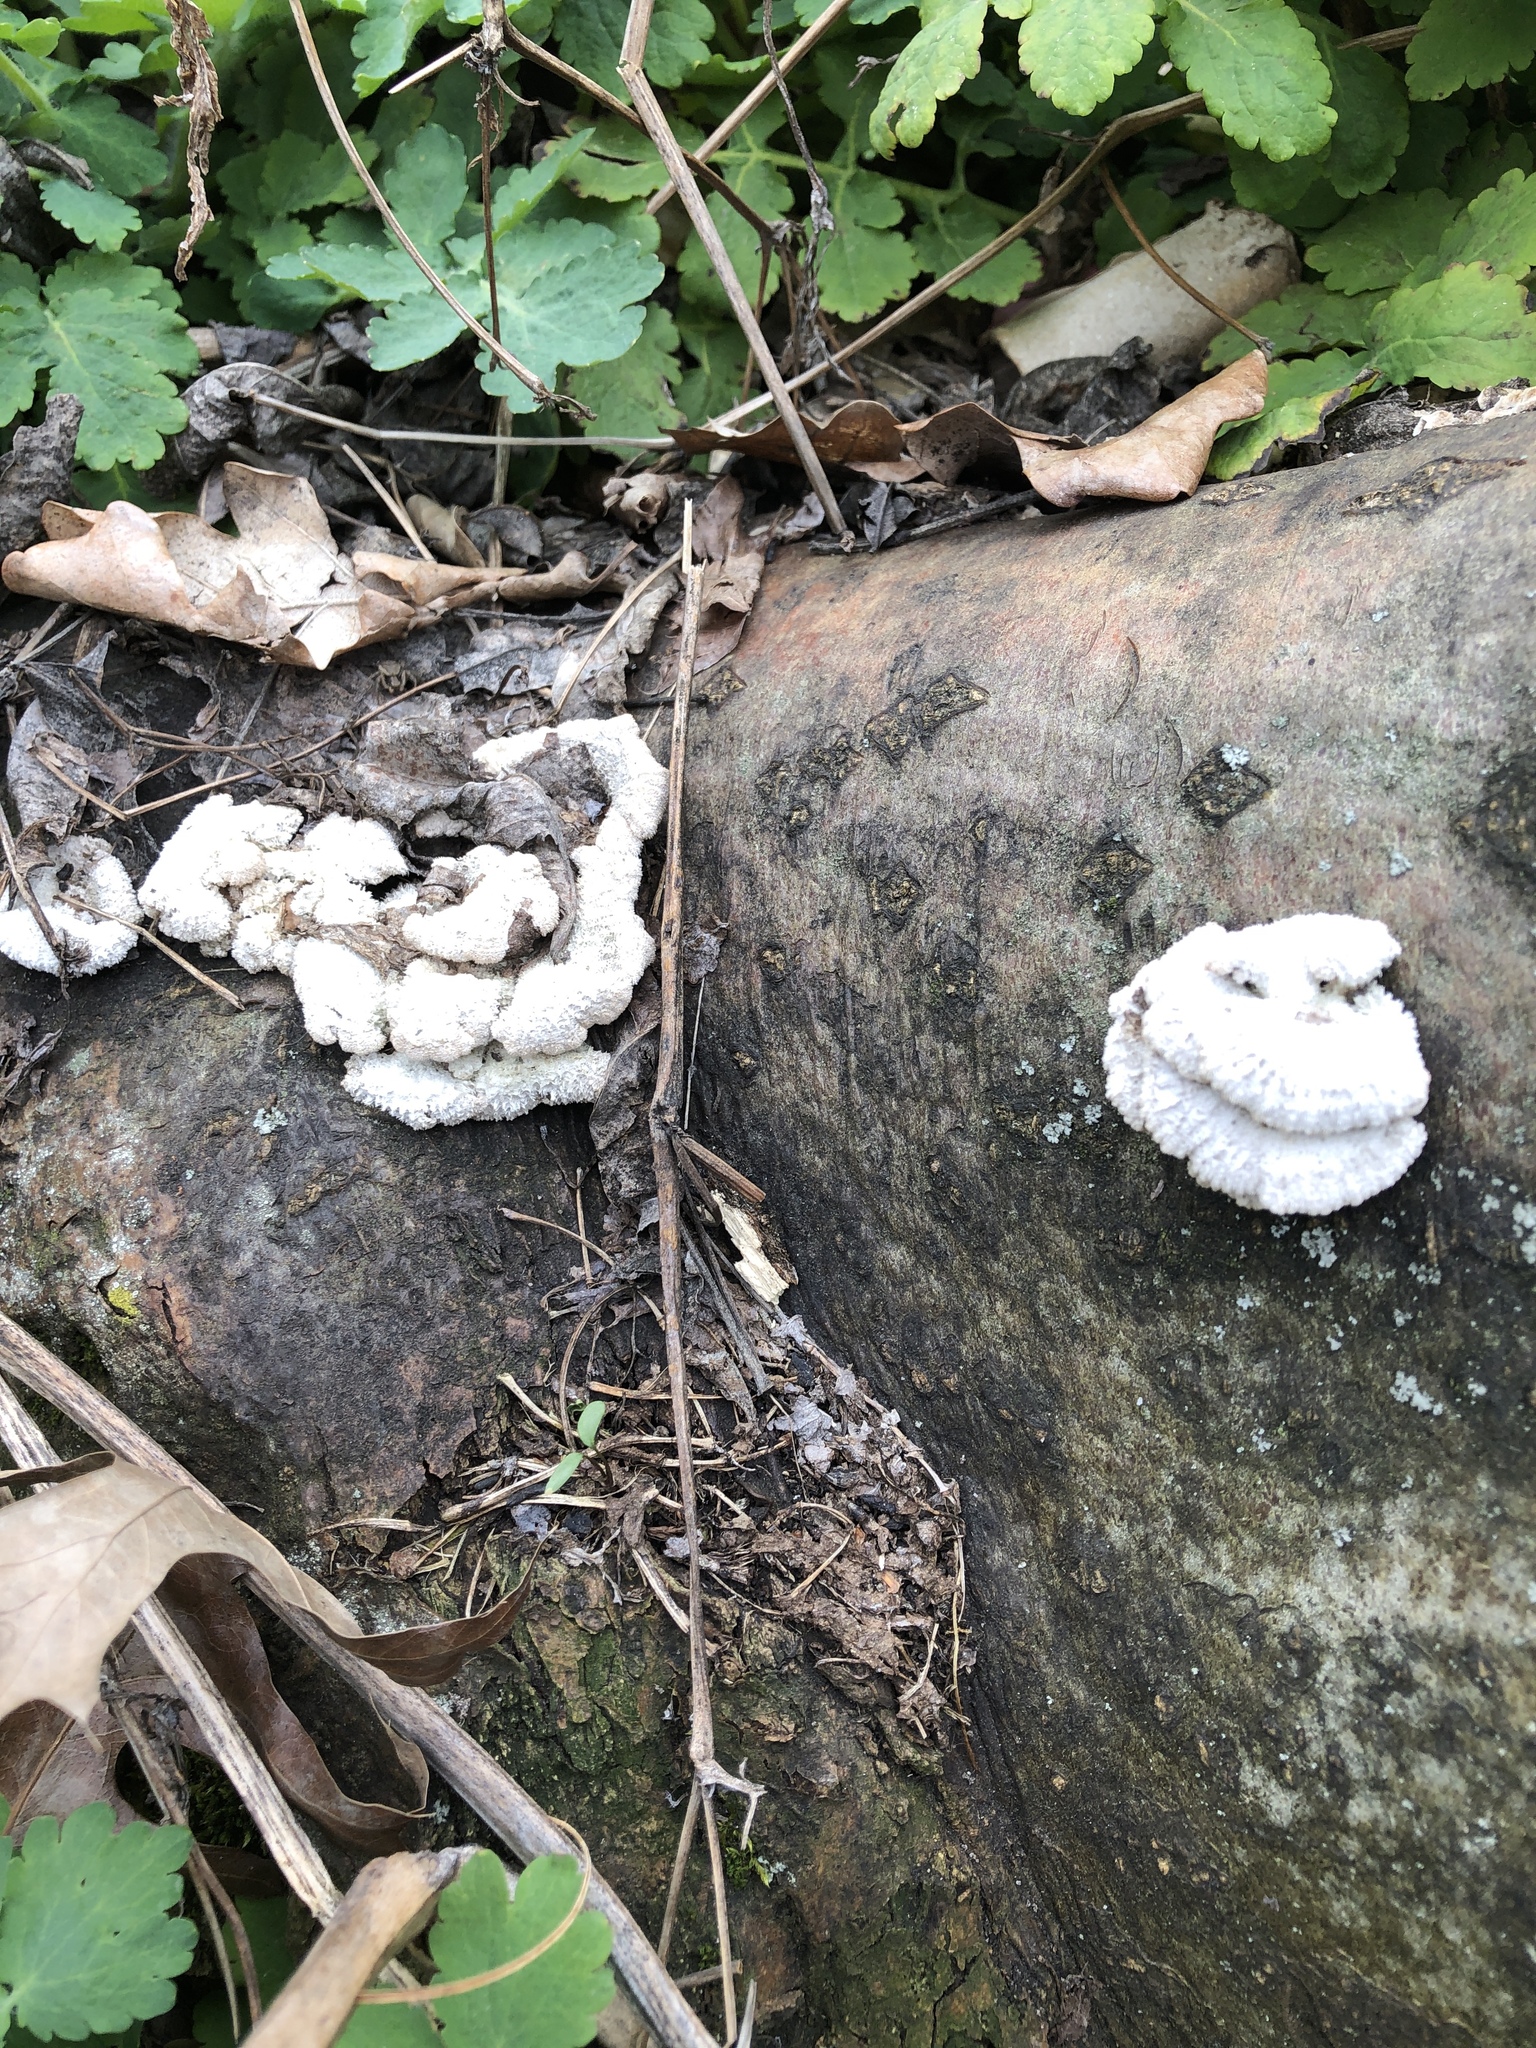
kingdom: Fungi
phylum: Basidiomycota
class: Agaricomycetes
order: Agaricales
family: Schizophyllaceae
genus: Schizophyllum
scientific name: Schizophyllum commune
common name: Common porecrust
